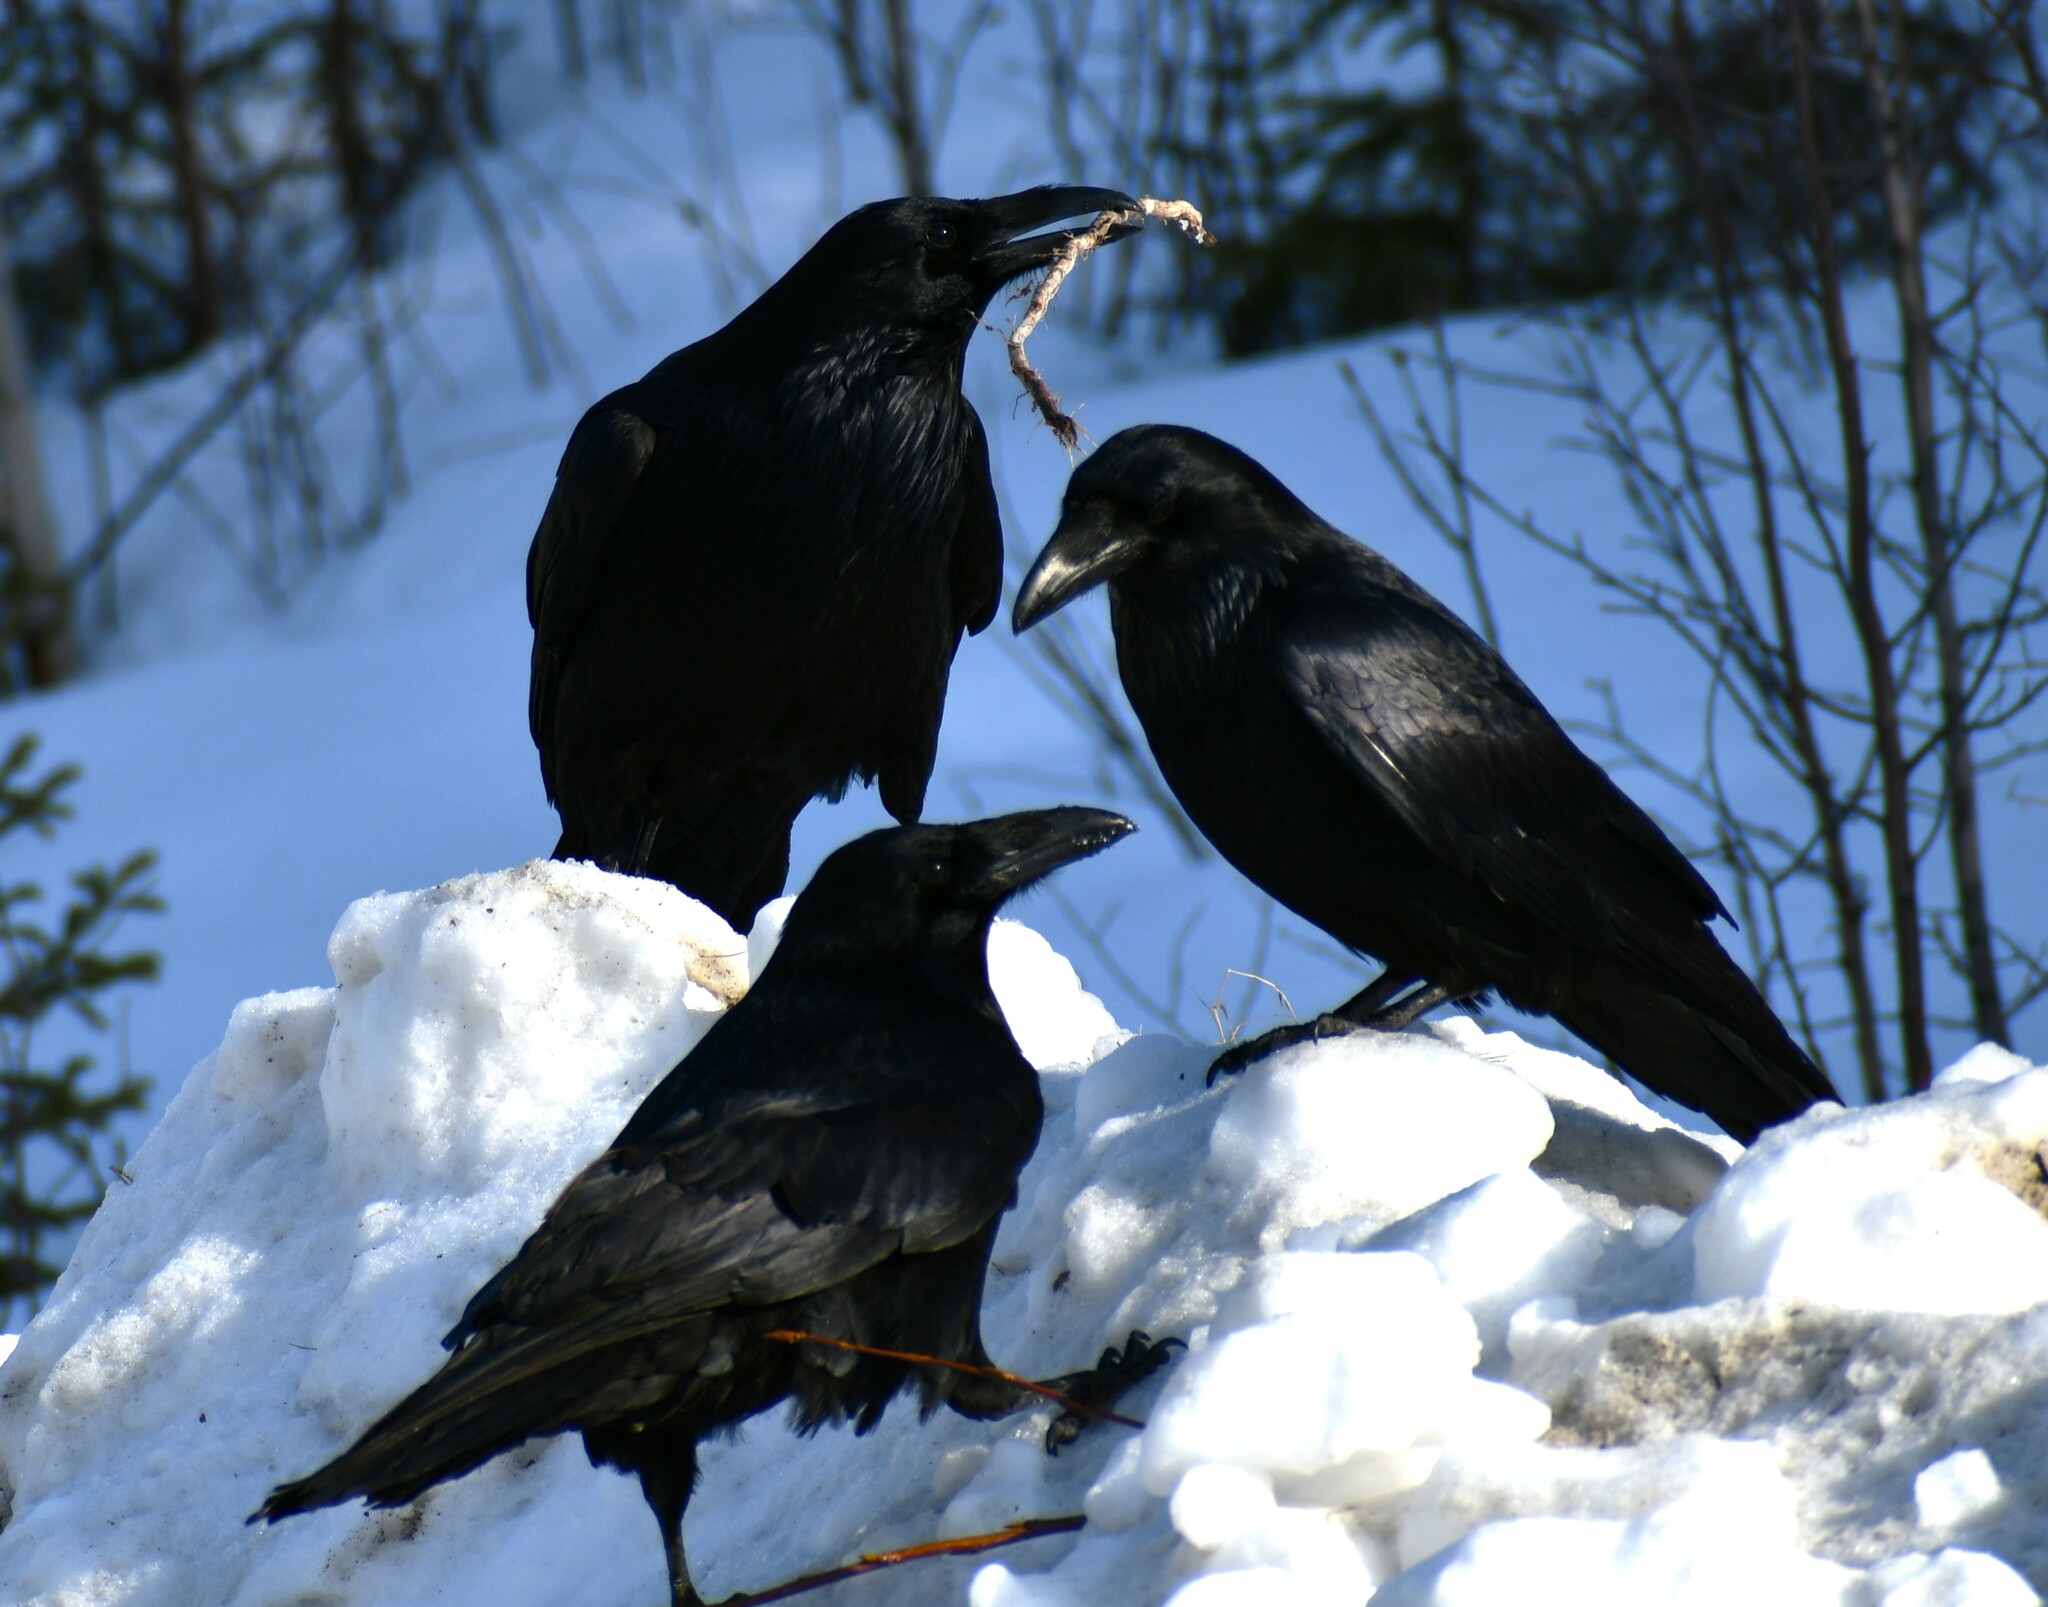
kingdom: Animalia
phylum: Chordata
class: Aves
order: Passeriformes
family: Corvidae
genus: Corvus
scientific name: Corvus corax
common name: Common raven
